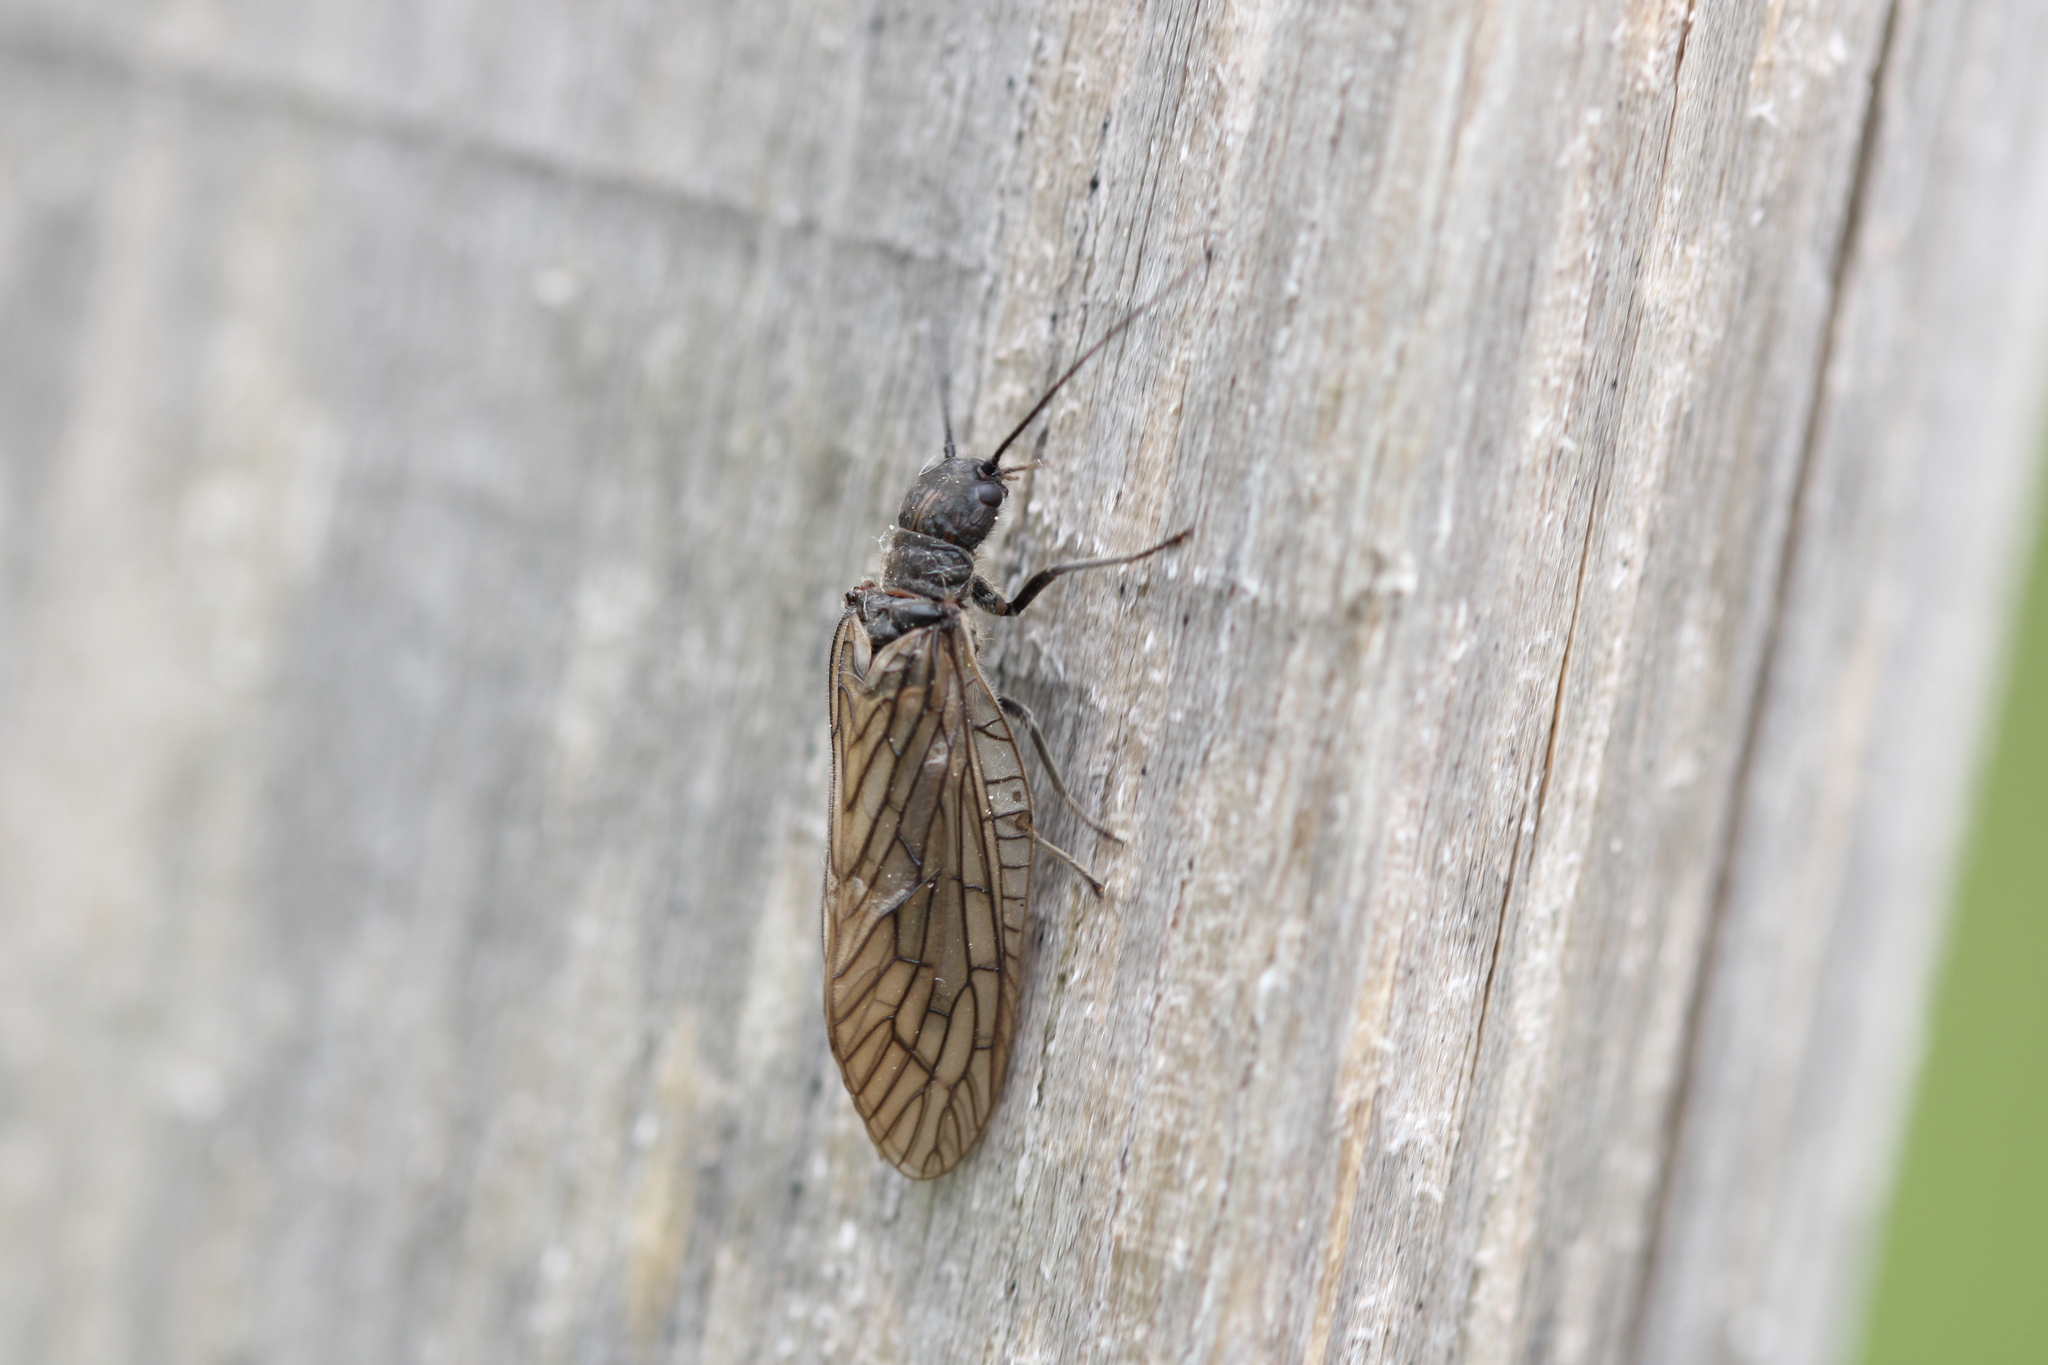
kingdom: Animalia
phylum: Arthropoda
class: Insecta
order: Megaloptera
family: Sialidae
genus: Sialis
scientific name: Sialis
